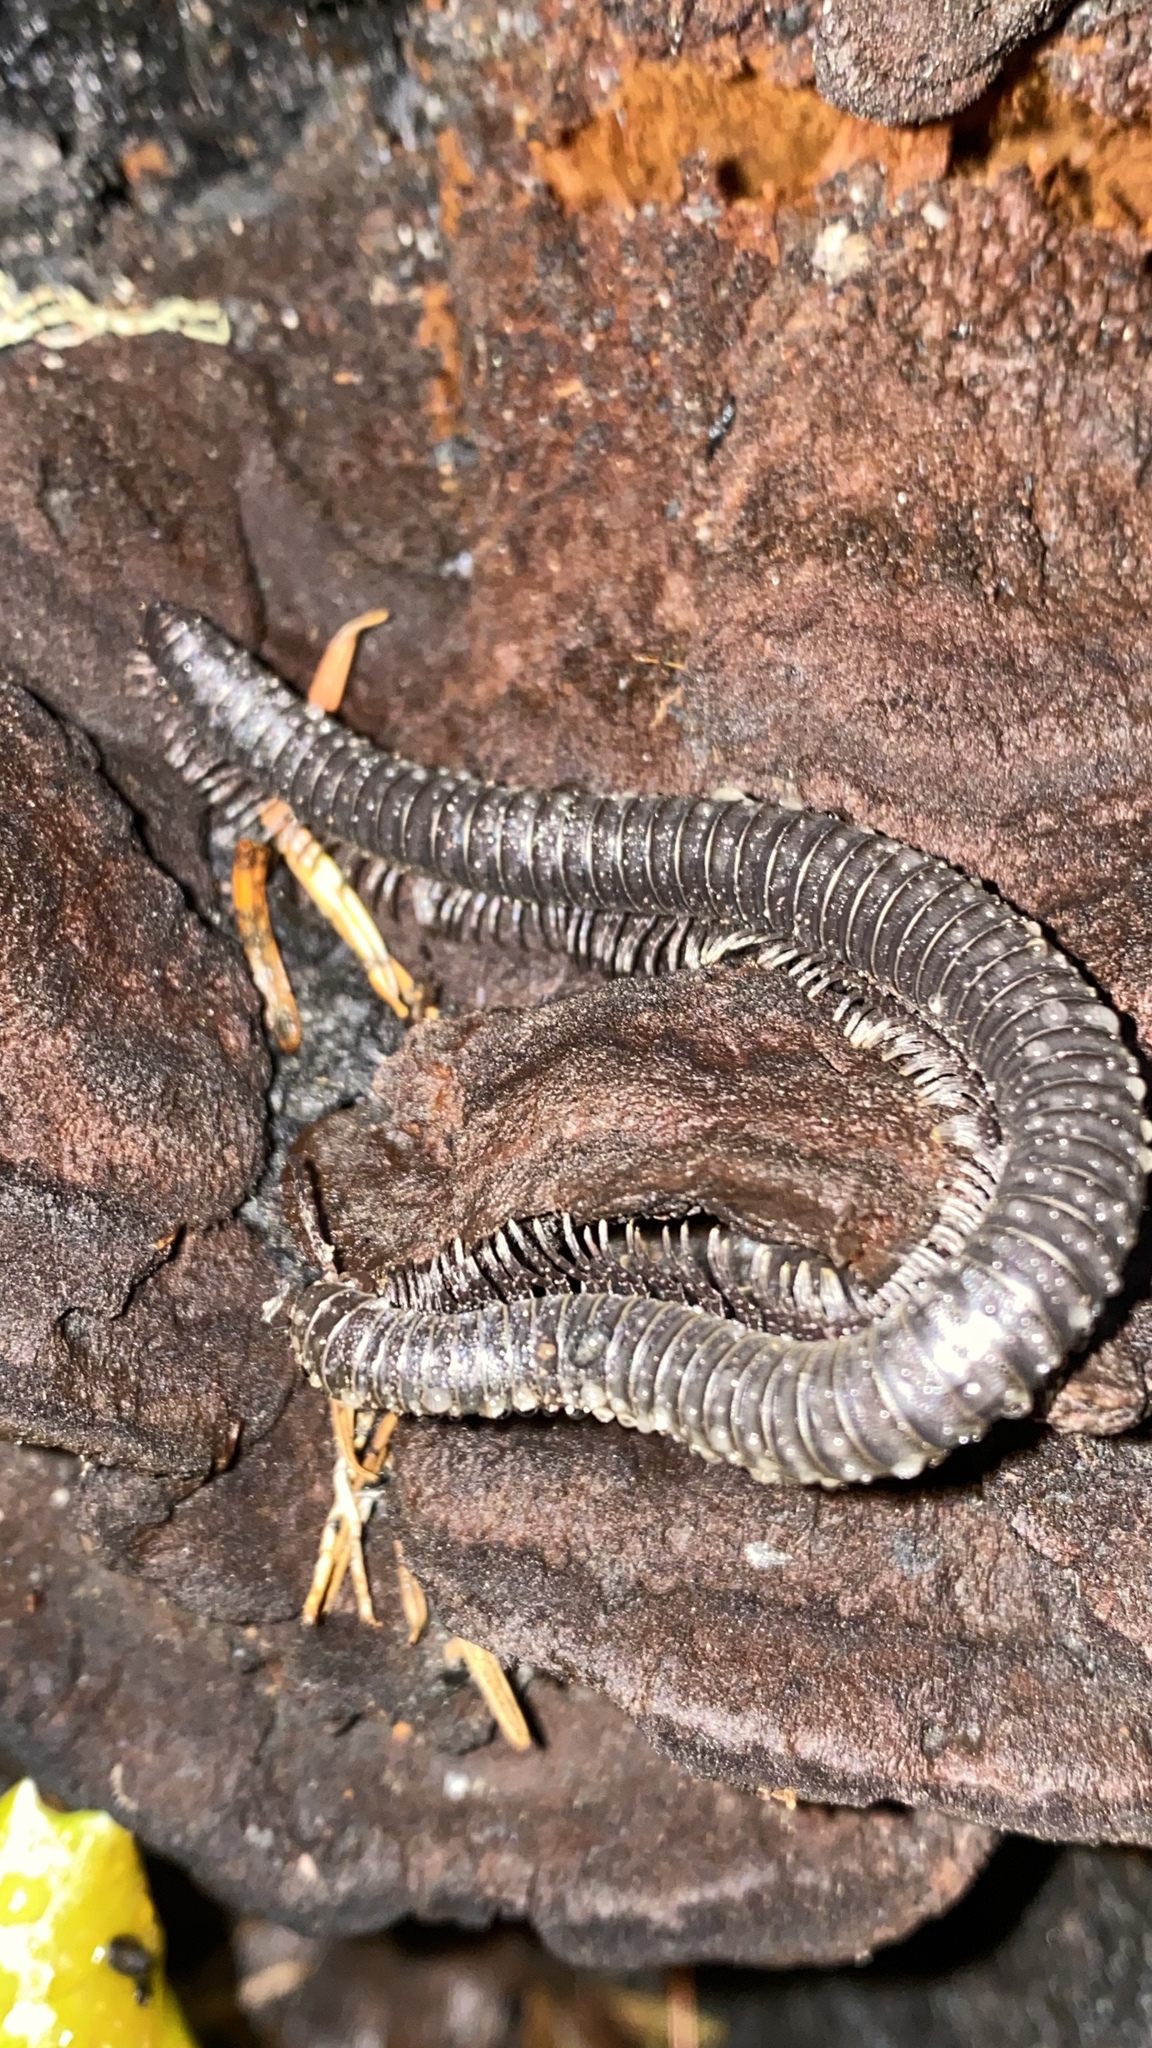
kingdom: Animalia
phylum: Arthropoda
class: Diplopoda
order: Julida
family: Paeromopodidae
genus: Californiulus
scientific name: Californiulus euphanus
